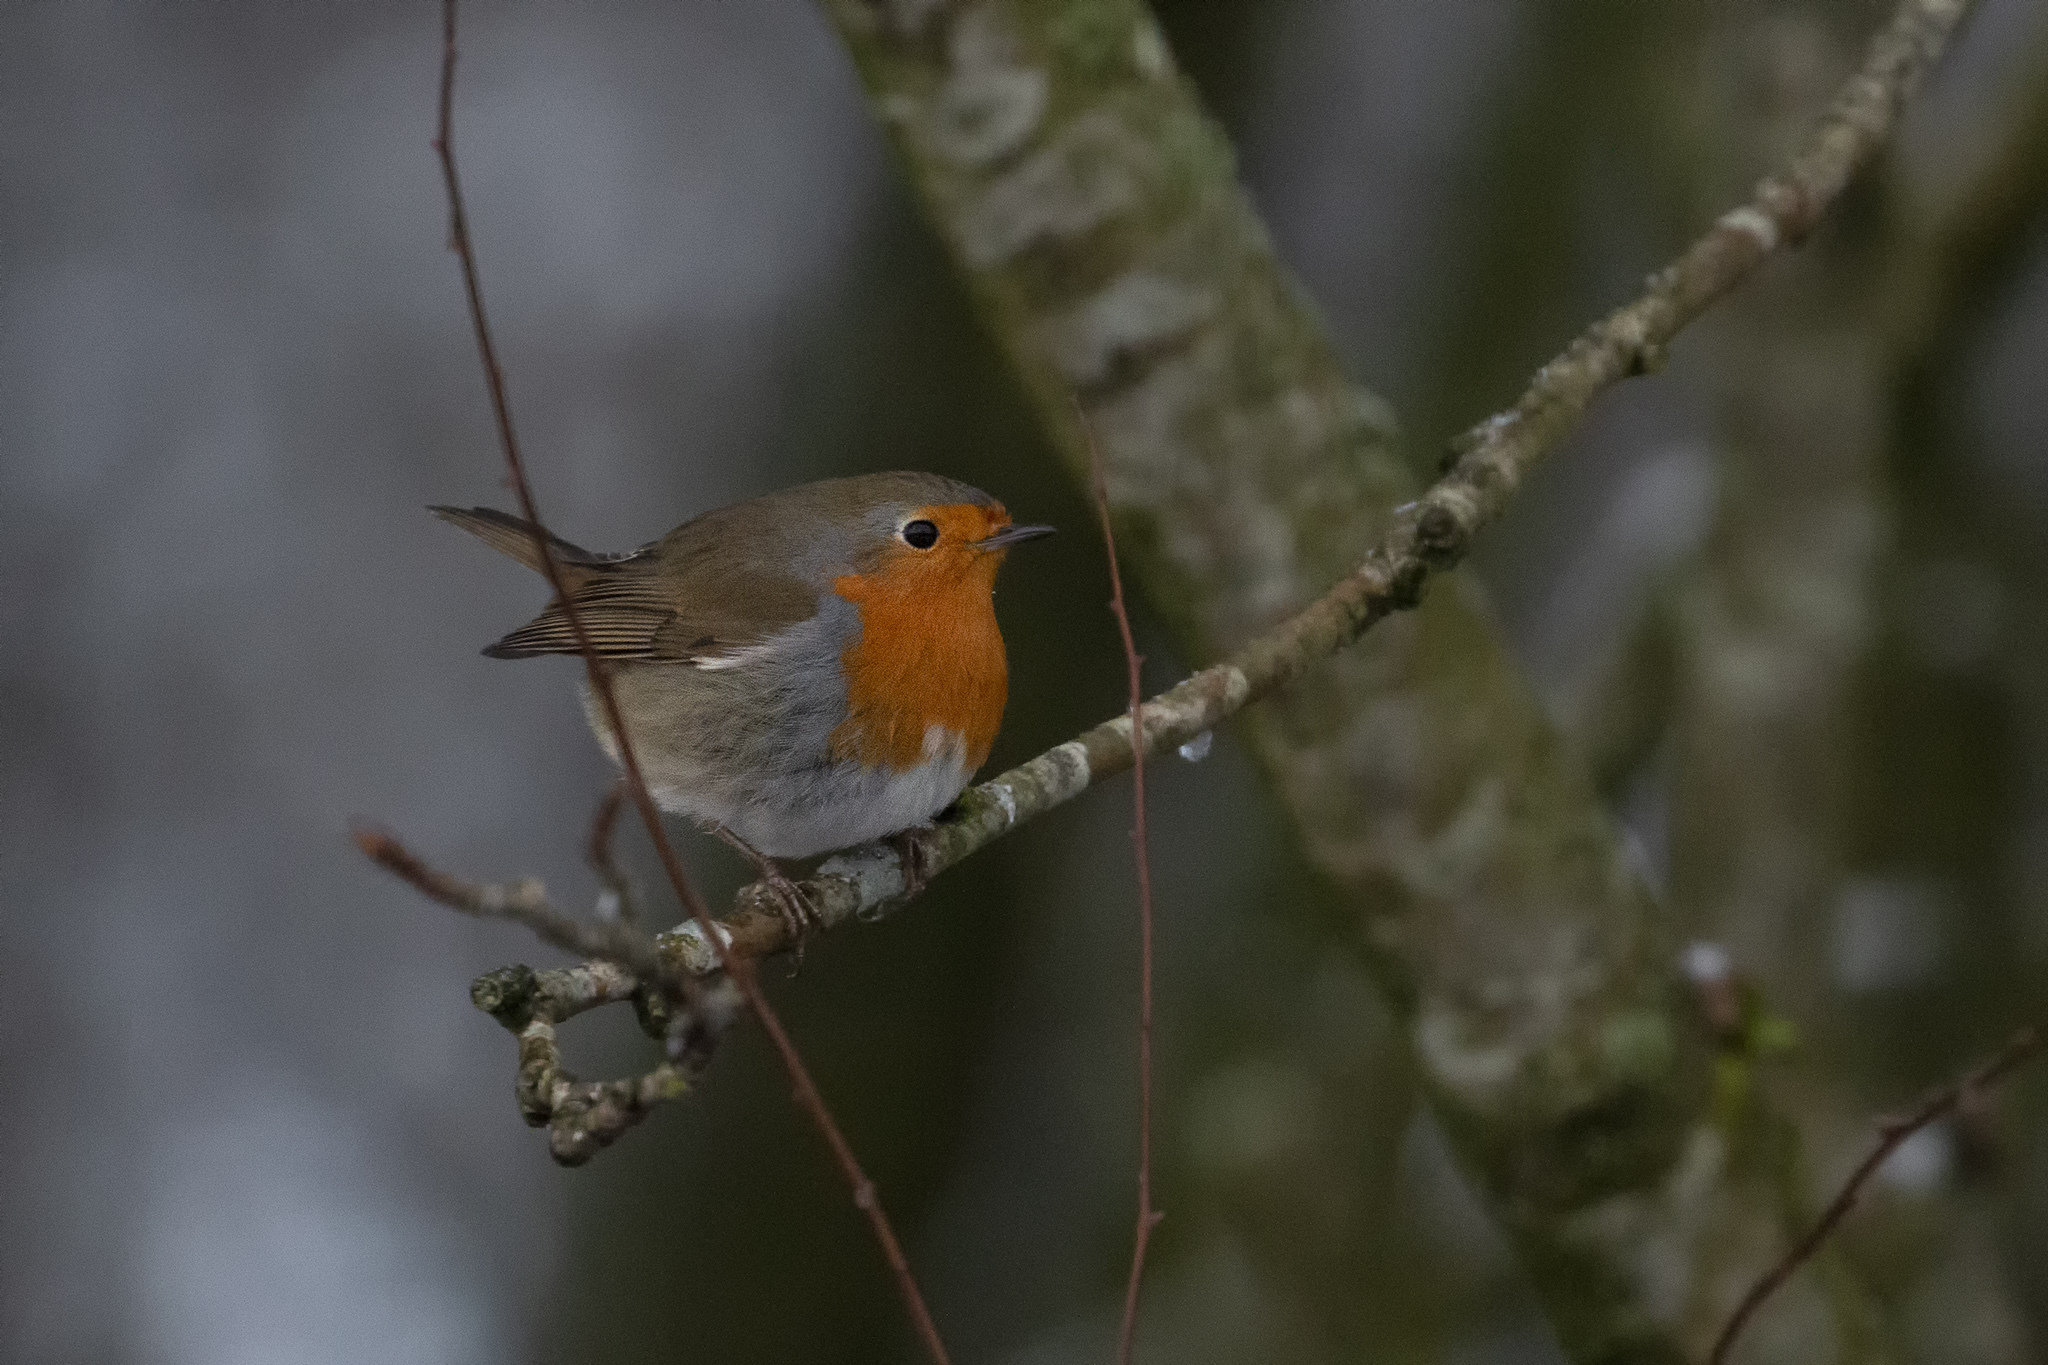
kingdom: Animalia
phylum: Chordata
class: Aves
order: Passeriformes
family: Muscicapidae
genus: Erithacus
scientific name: Erithacus rubecula
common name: European robin
